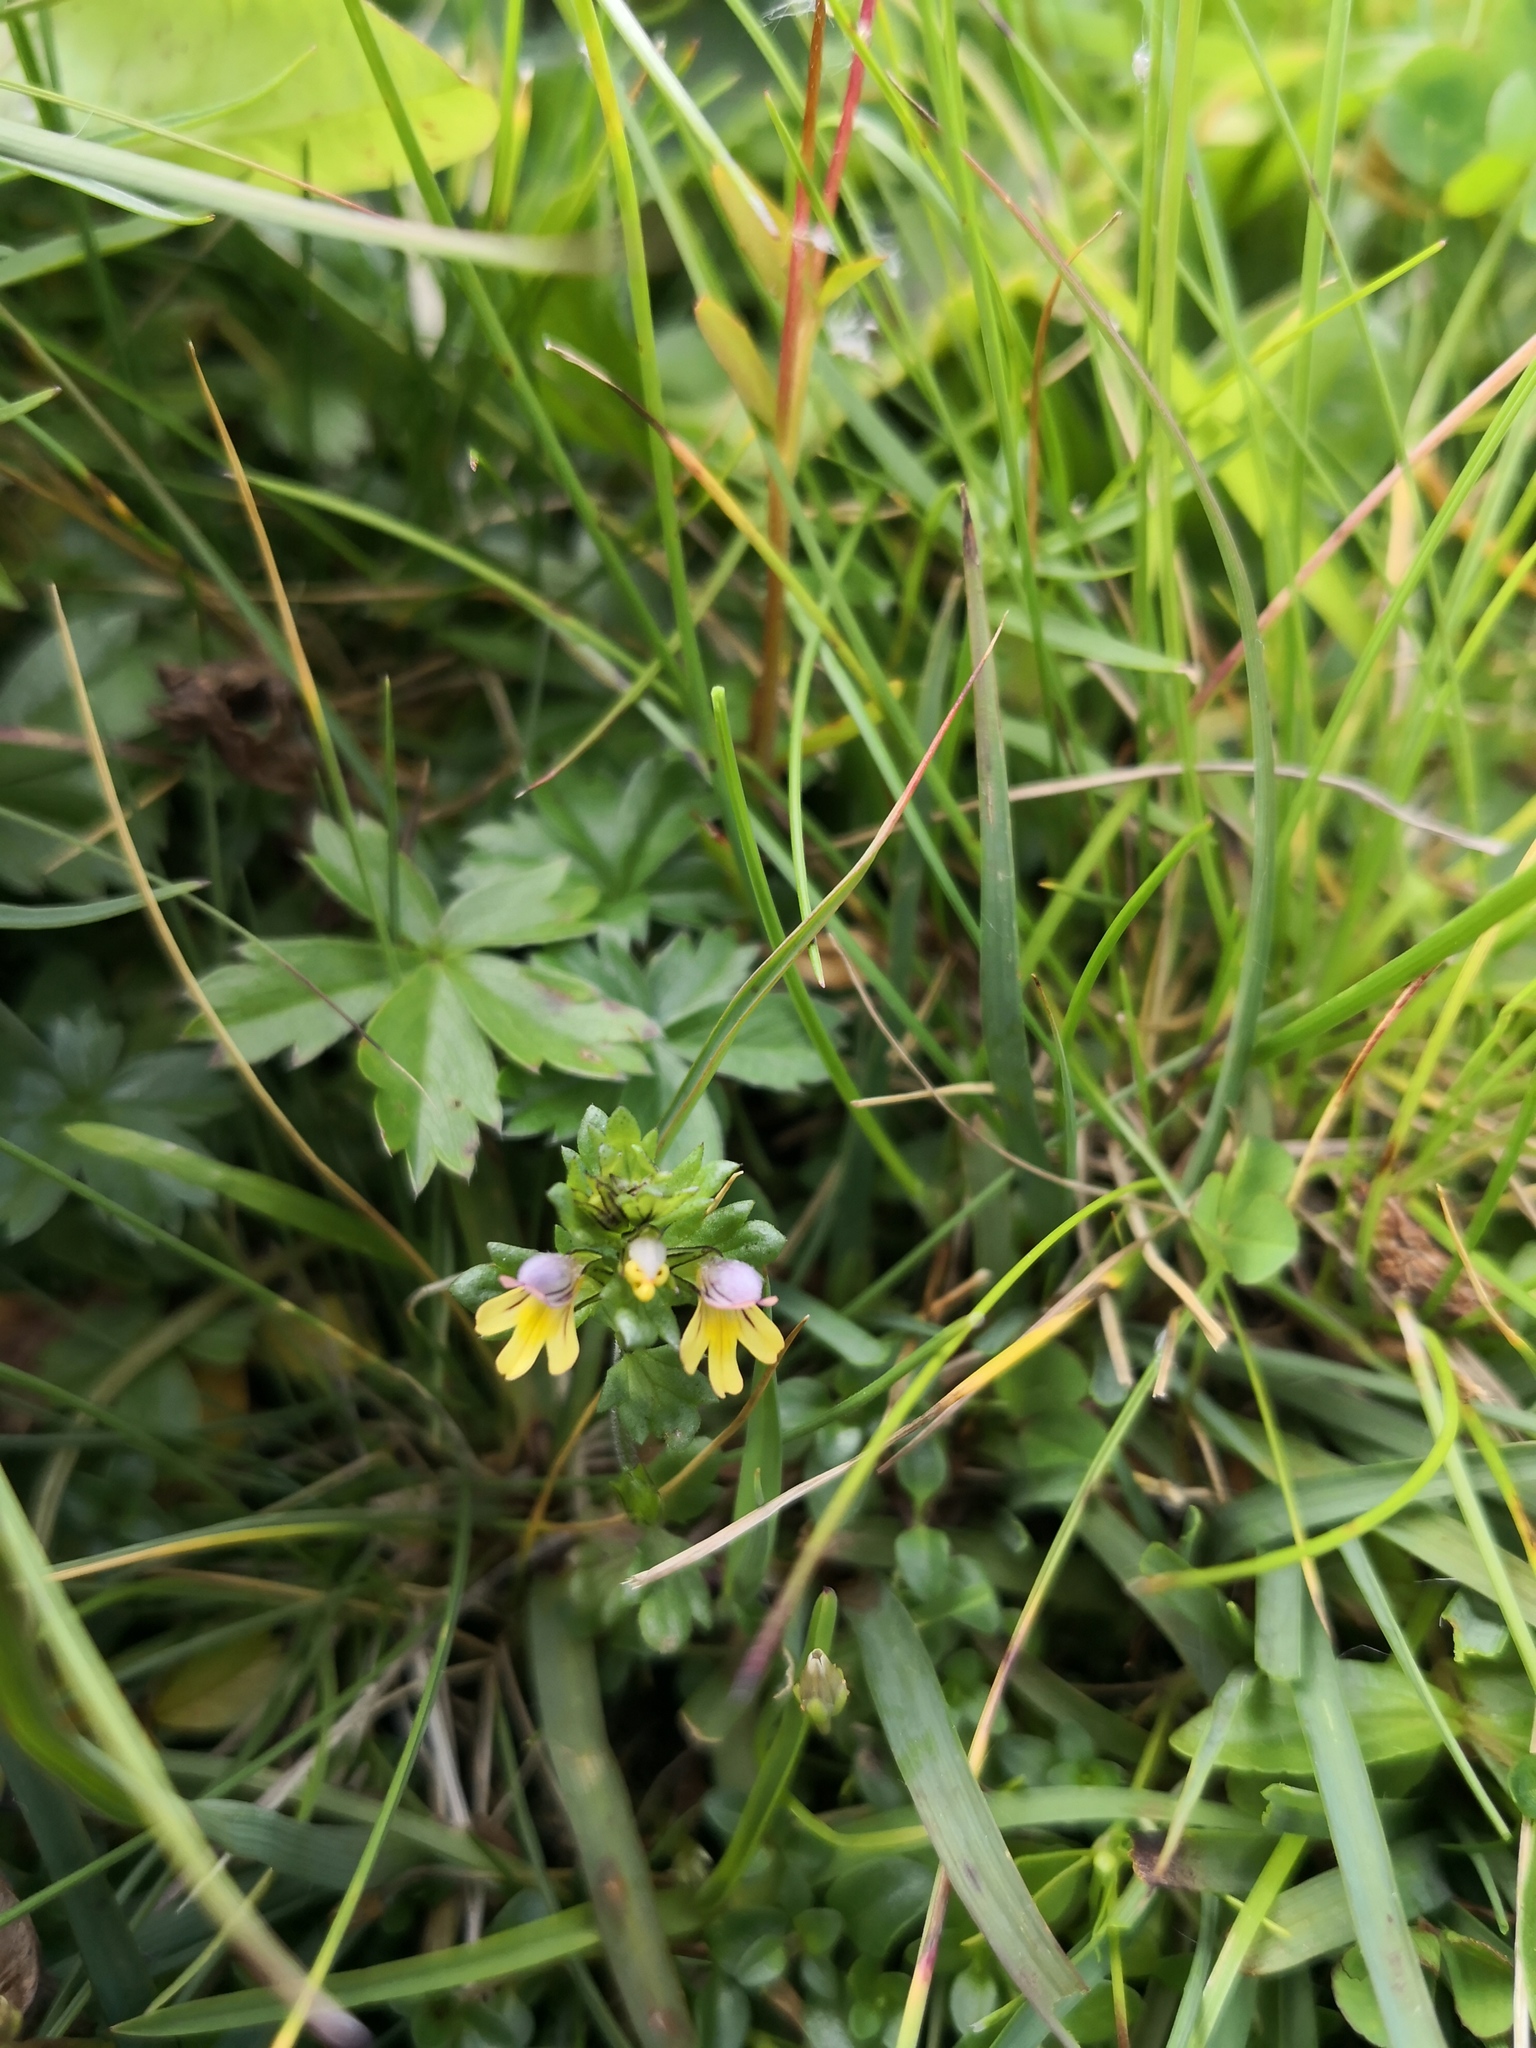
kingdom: Plantae
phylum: Tracheophyta
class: Magnoliopsida
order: Lamiales
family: Orobanchaceae
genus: Euphrasia
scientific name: Euphrasia minima
